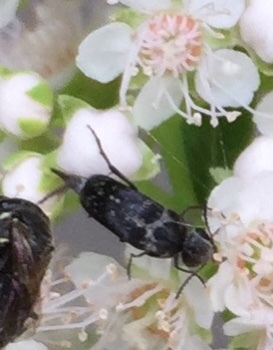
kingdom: Animalia
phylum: Arthropoda
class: Insecta
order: Coleoptera
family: Mordellidae
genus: Mordella
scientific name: Mordella marginata
